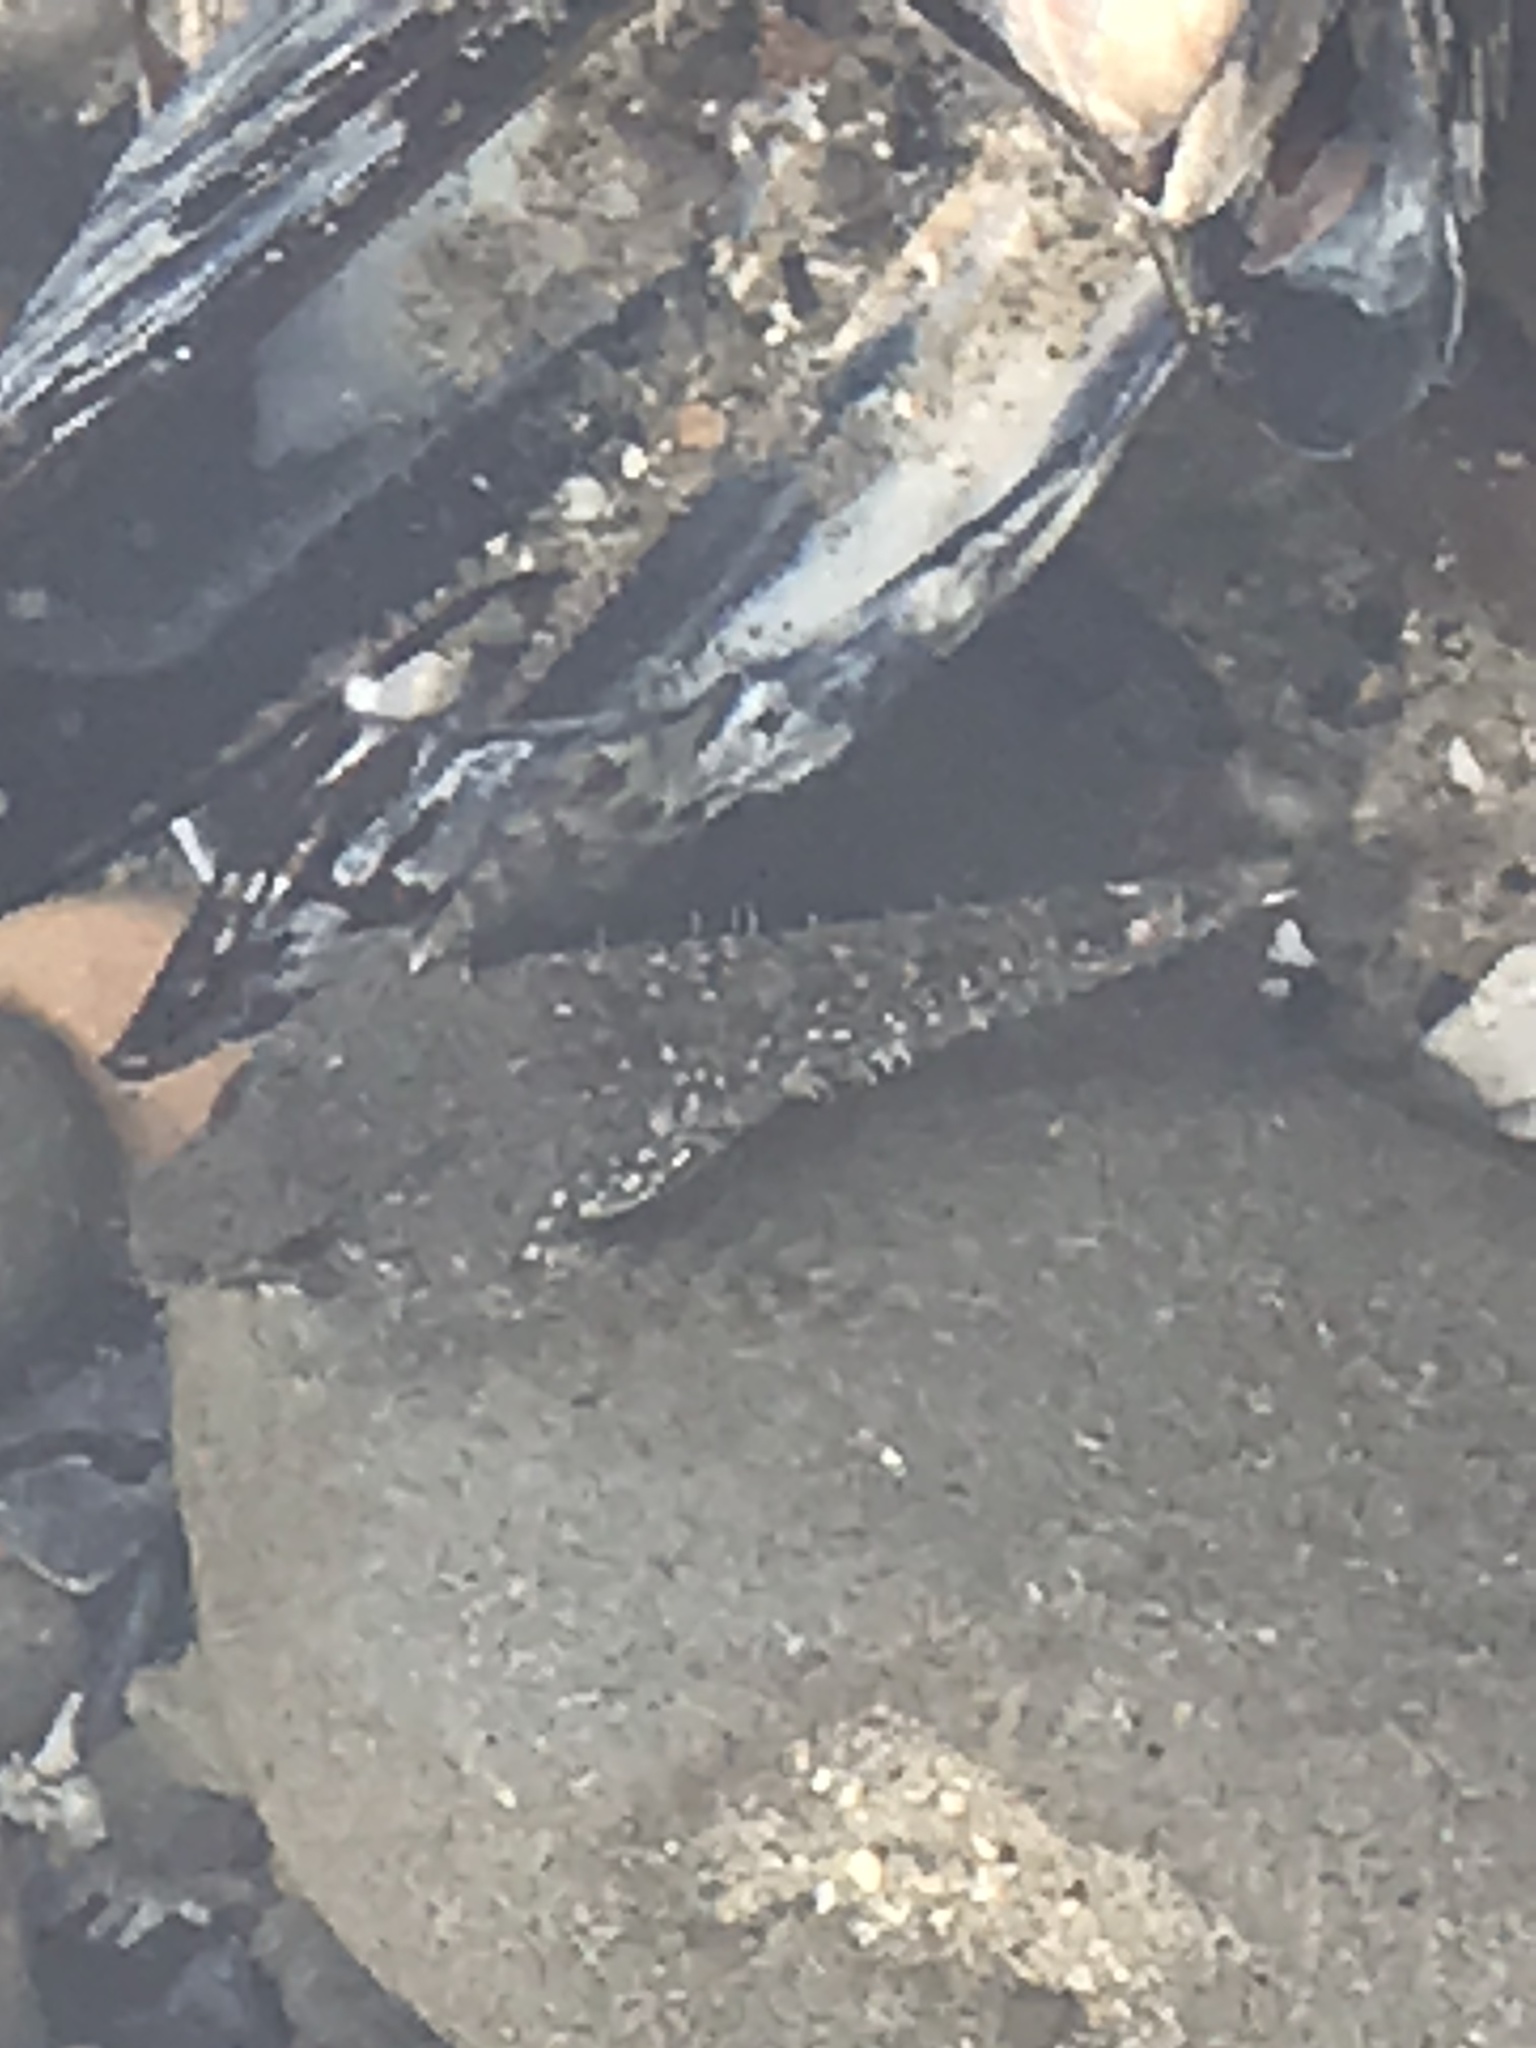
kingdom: Animalia
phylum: Chordata
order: Scorpaeniformes
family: Cottidae
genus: Oligocottus
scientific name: Oligocottus maculosus
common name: Tidepool sculpin
